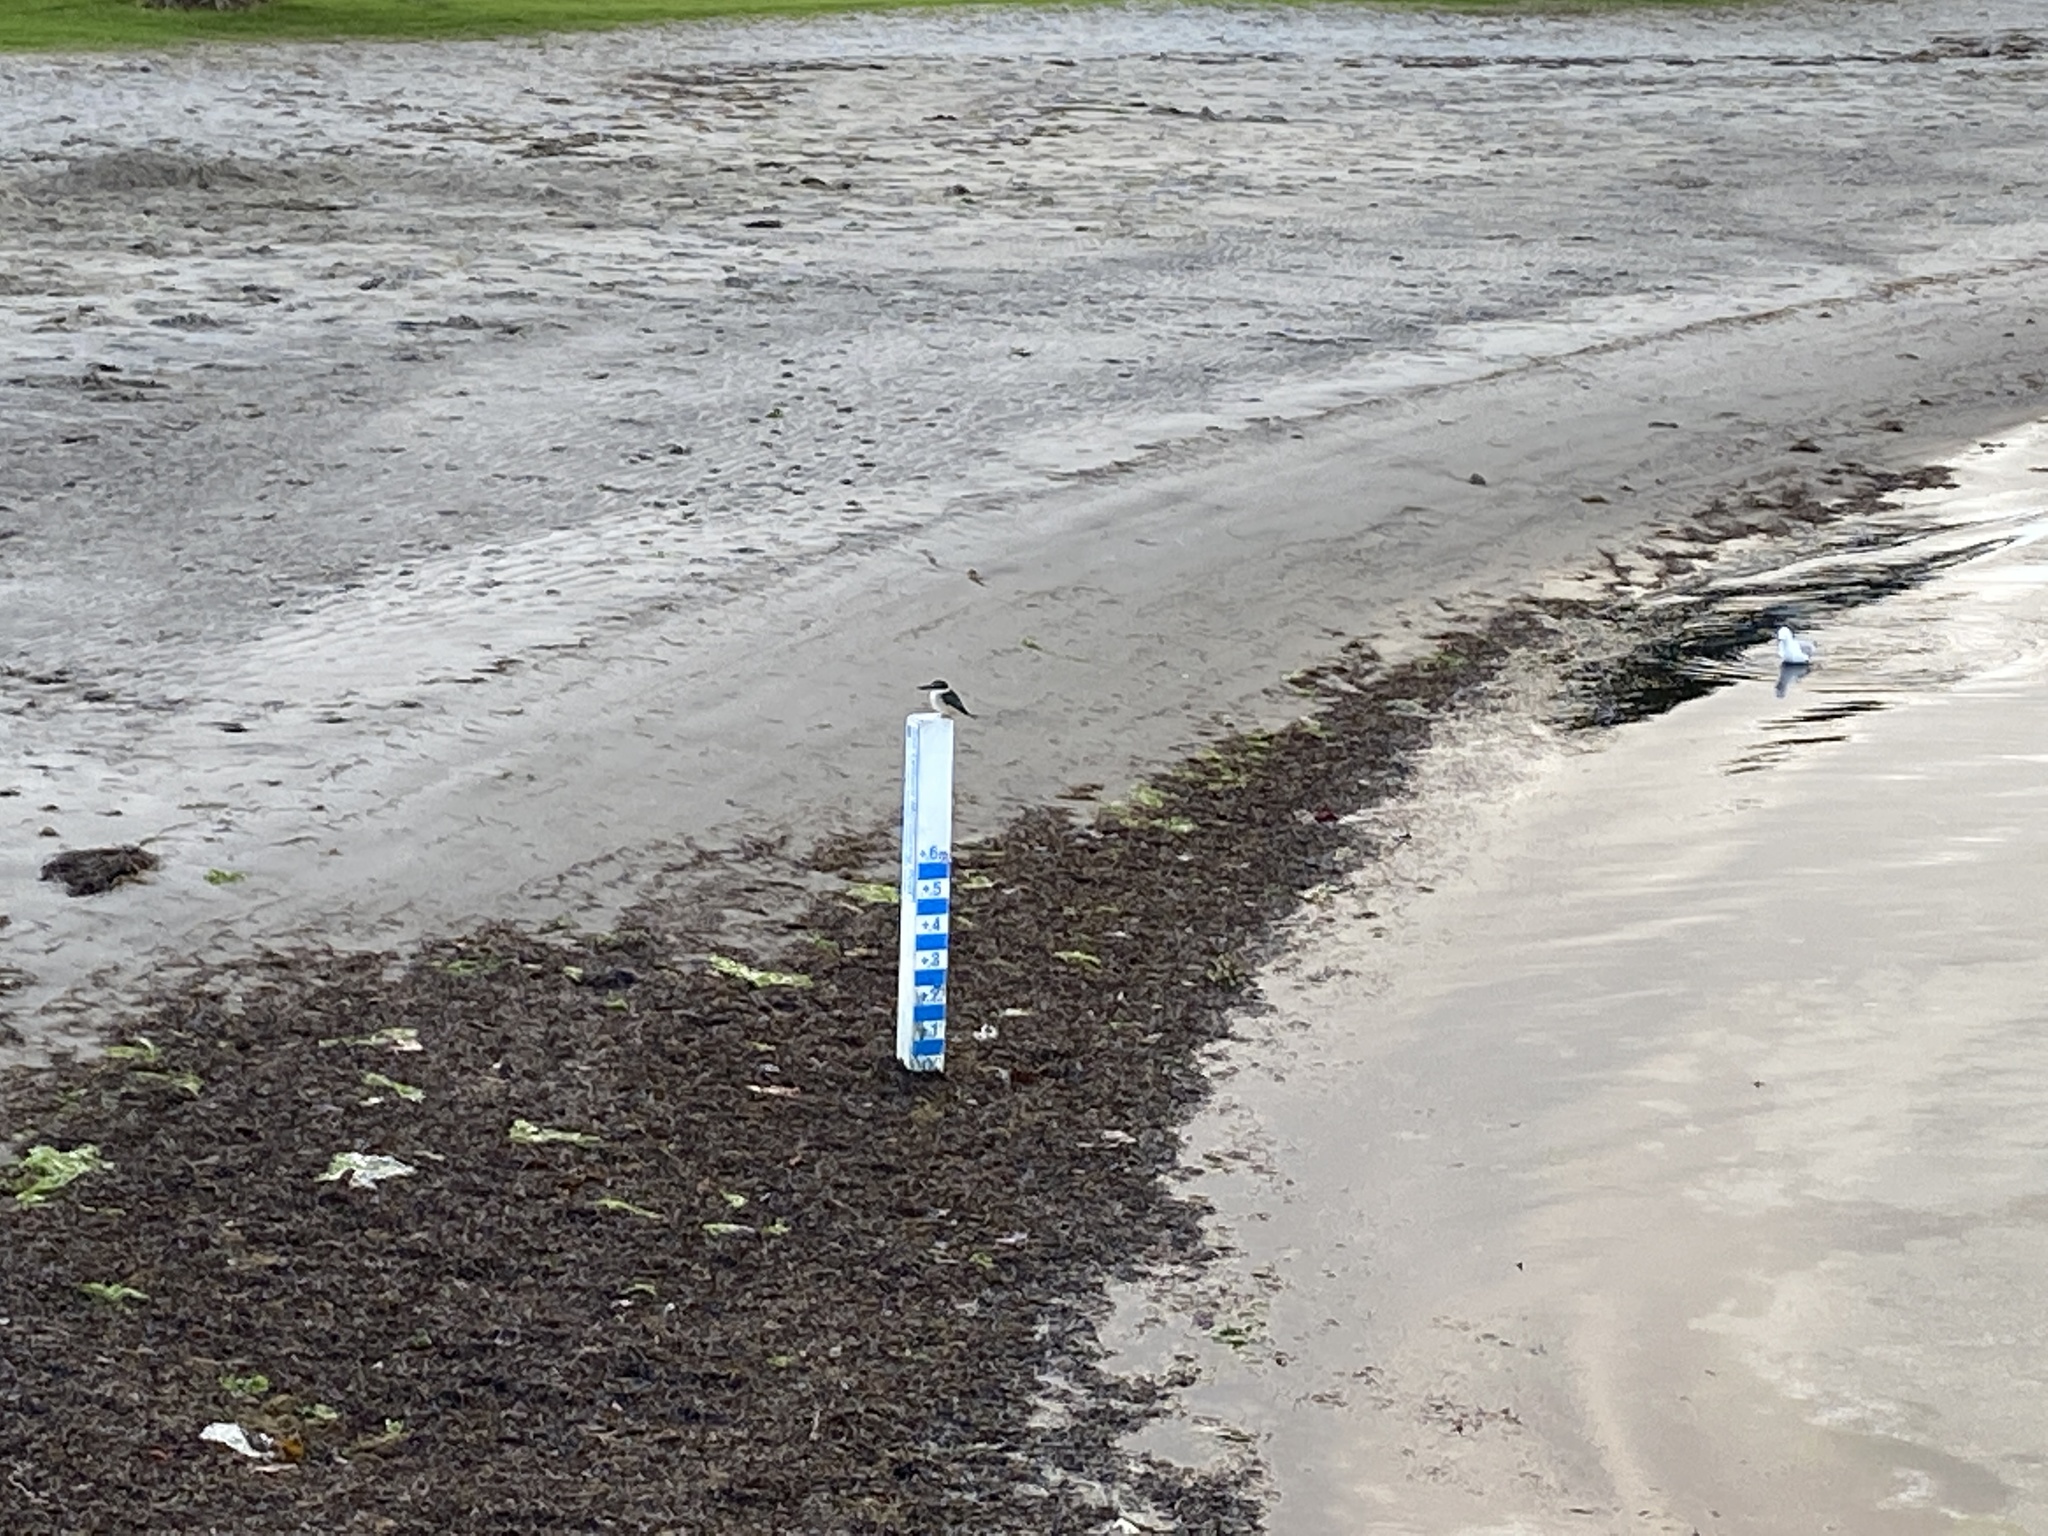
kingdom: Animalia
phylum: Chordata
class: Aves
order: Coraciiformes
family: Alcedinidae
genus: Todiramphus
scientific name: Todiramphus sanctus
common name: Sacred kingfisher
